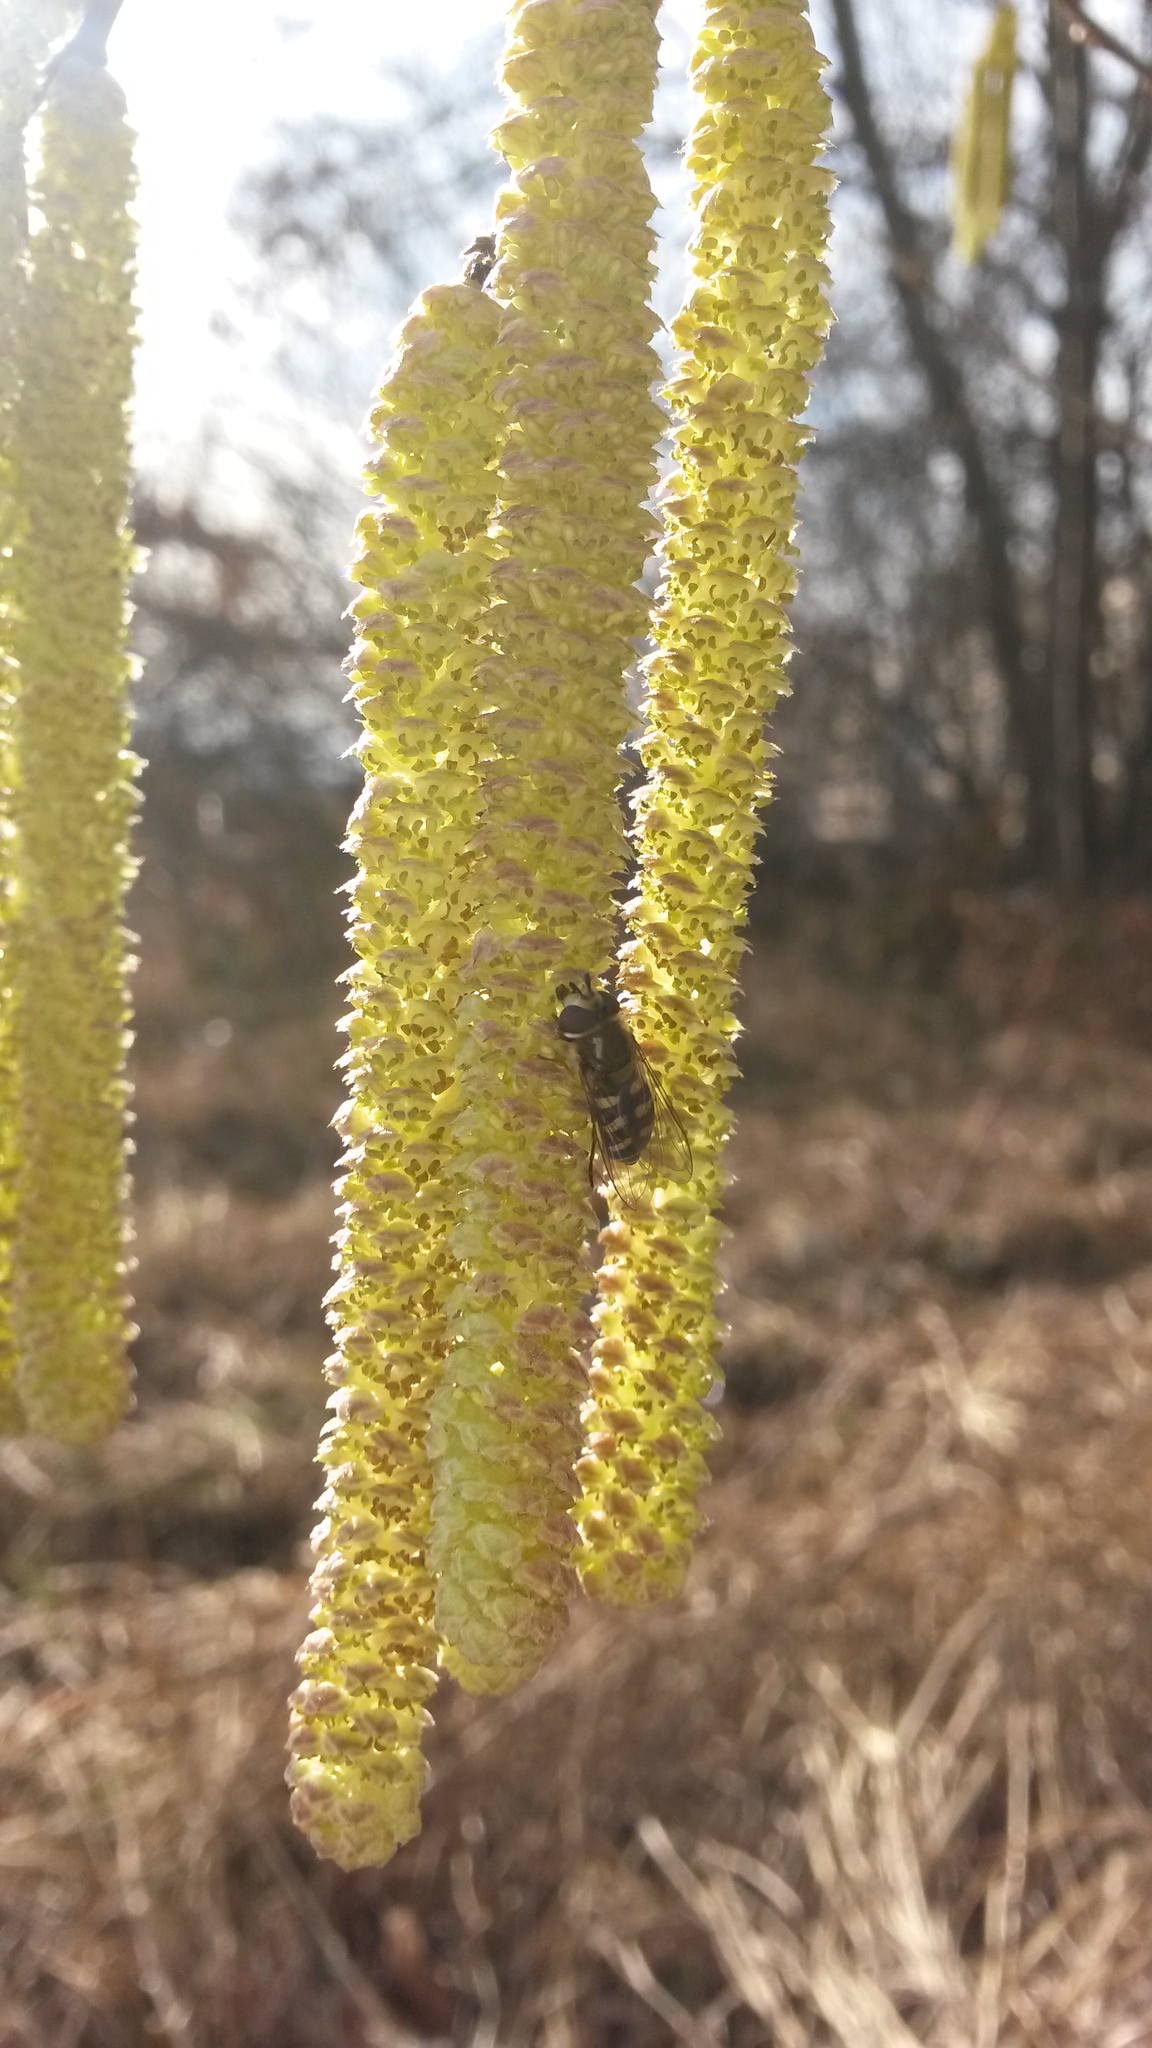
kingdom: Animalia
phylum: Arthropoda
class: Insecta
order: Diptera
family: Syrphidae
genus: Scaeva
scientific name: Scaeva pyrastri
